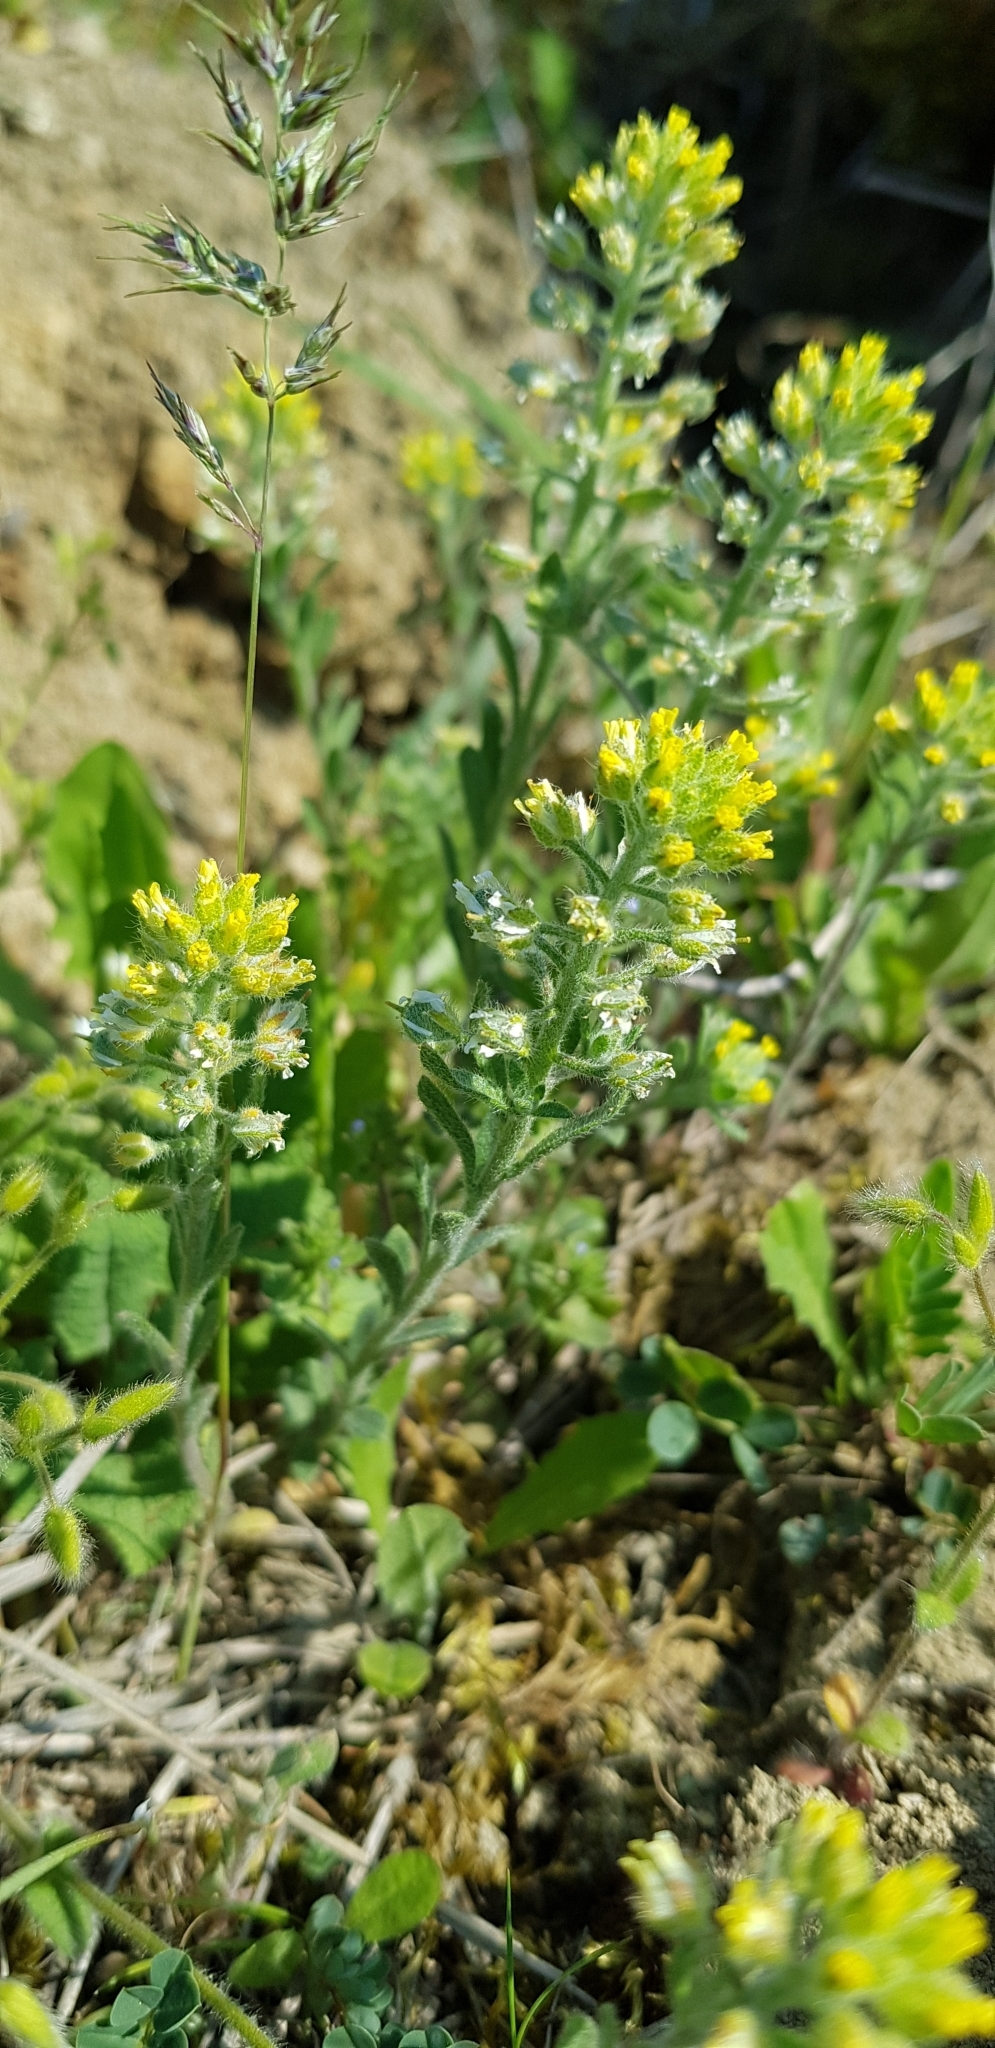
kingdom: Plantae
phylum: Tracheophyta
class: Magnoliopsida
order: Brassicales
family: Brassicaceae
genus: Alyssum
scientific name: Alyssum alyssoides
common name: Small alison
